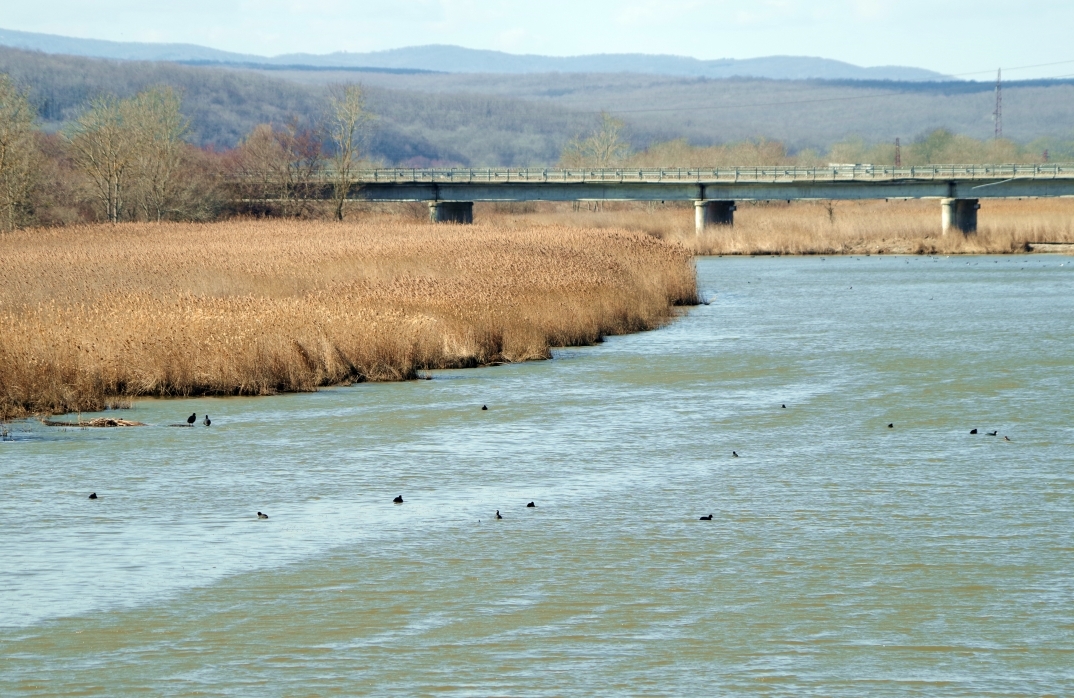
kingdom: Animalia
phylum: Chordata
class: Aves
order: Gruiformes
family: Rallidae
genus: Fulica
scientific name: Fulica atra
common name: Eurasian coot
